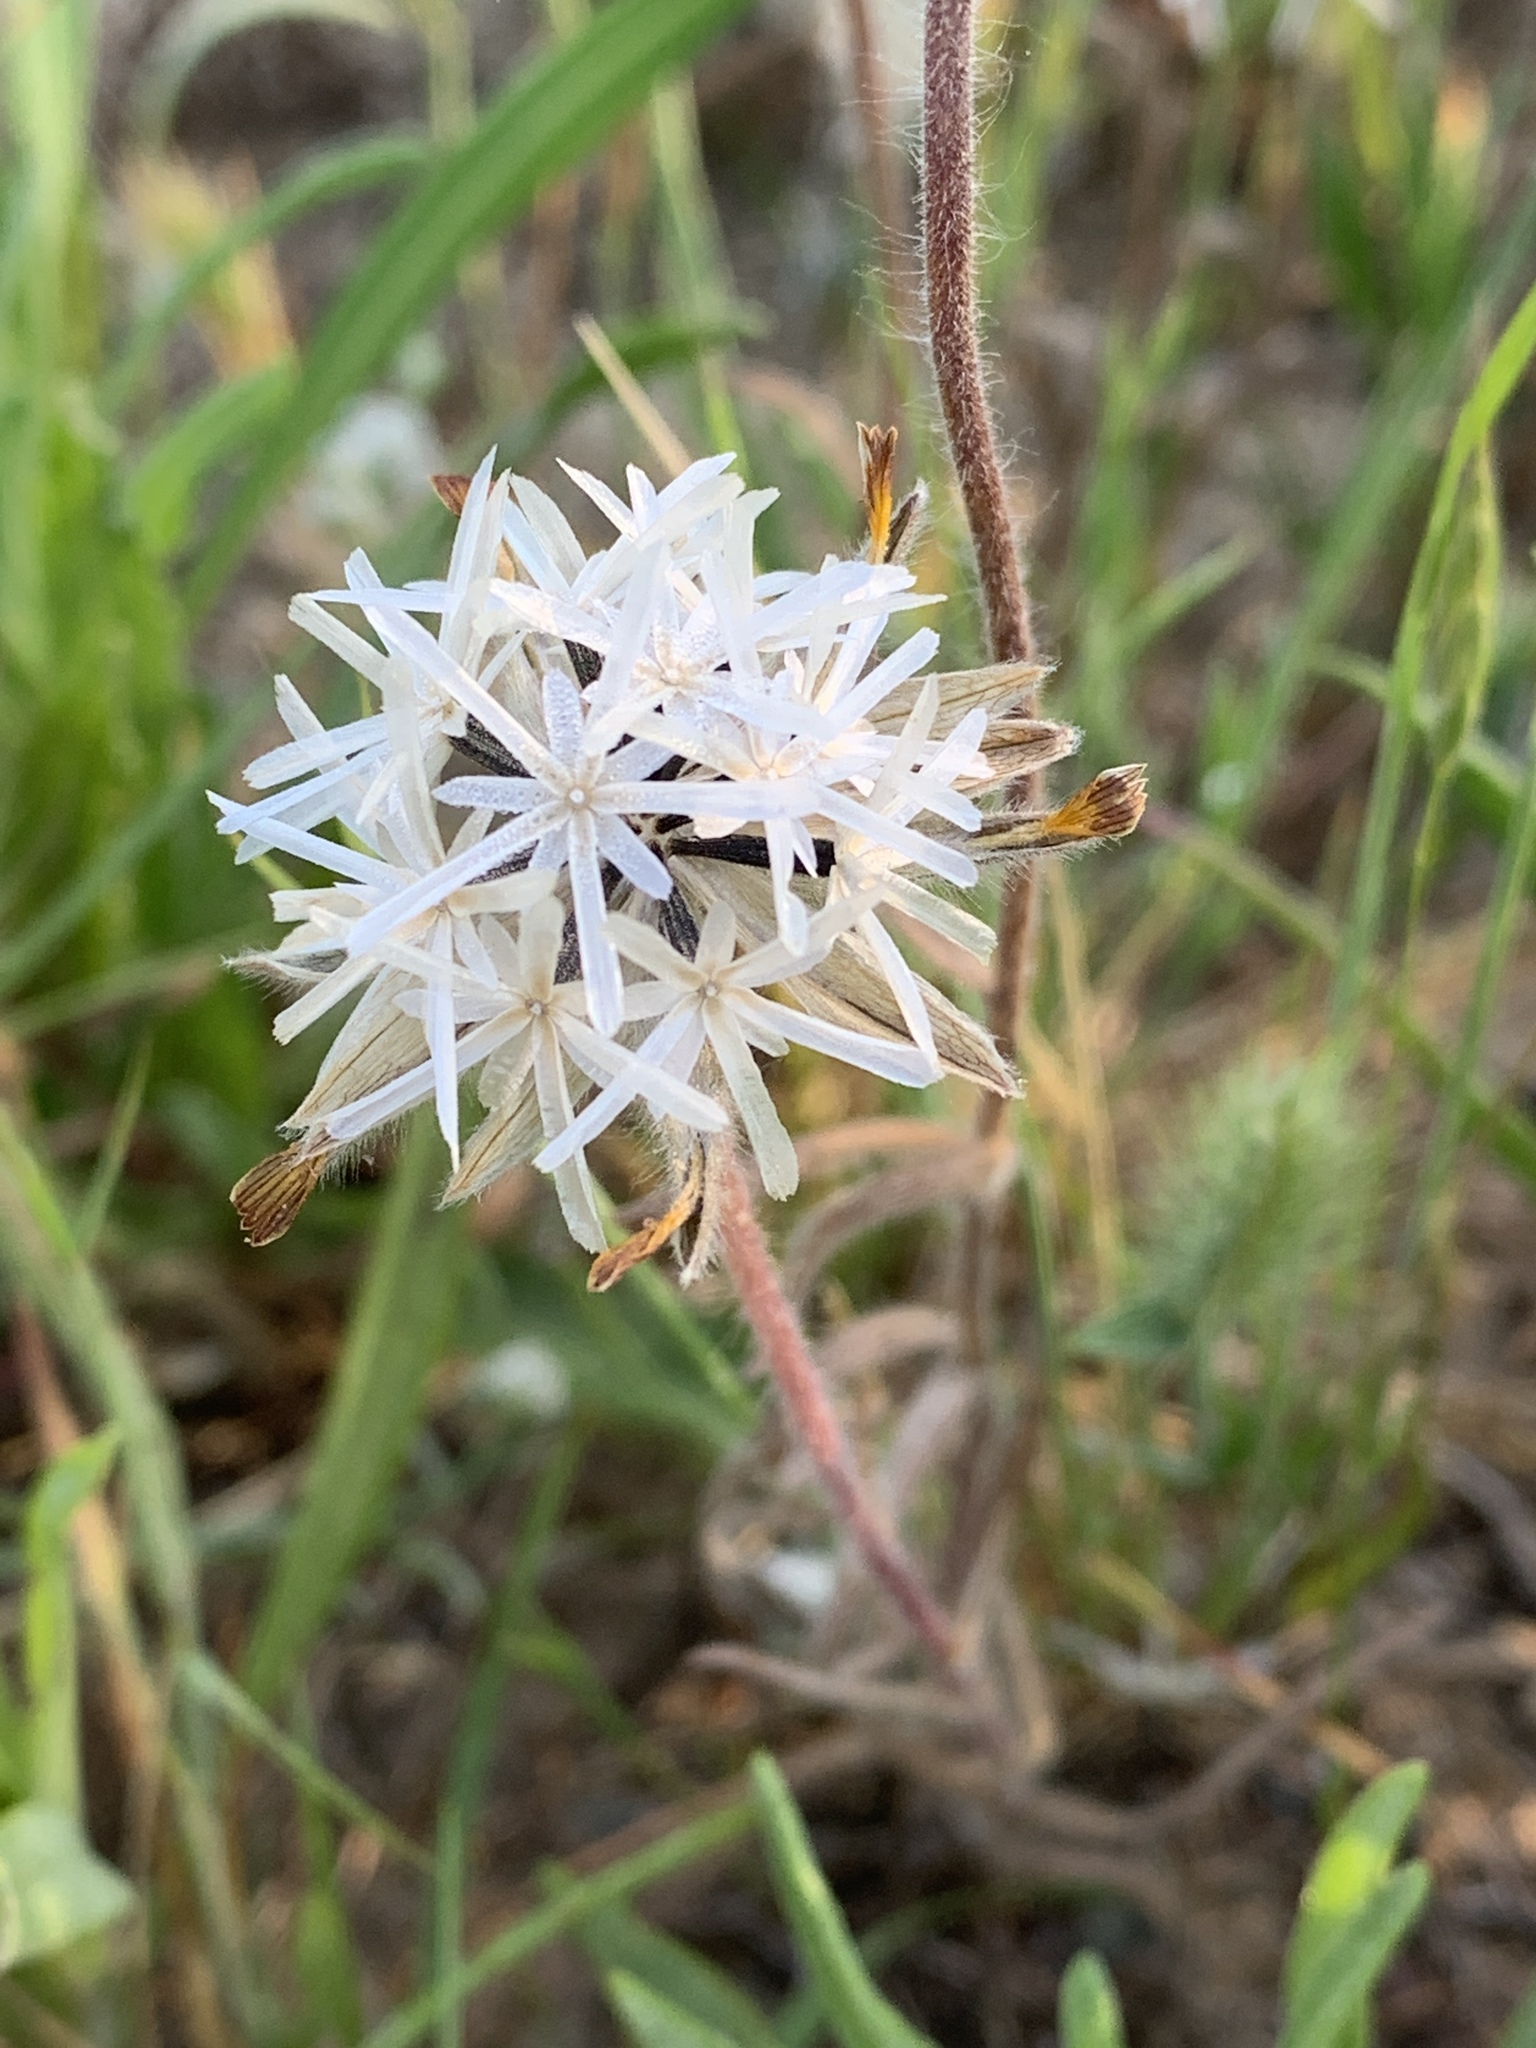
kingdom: Plantae
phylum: Tracheophyta
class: Magnoliopsida
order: Asterales
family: Asteraceae
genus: Achyrachaena
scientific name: Achyrachaena mollis
